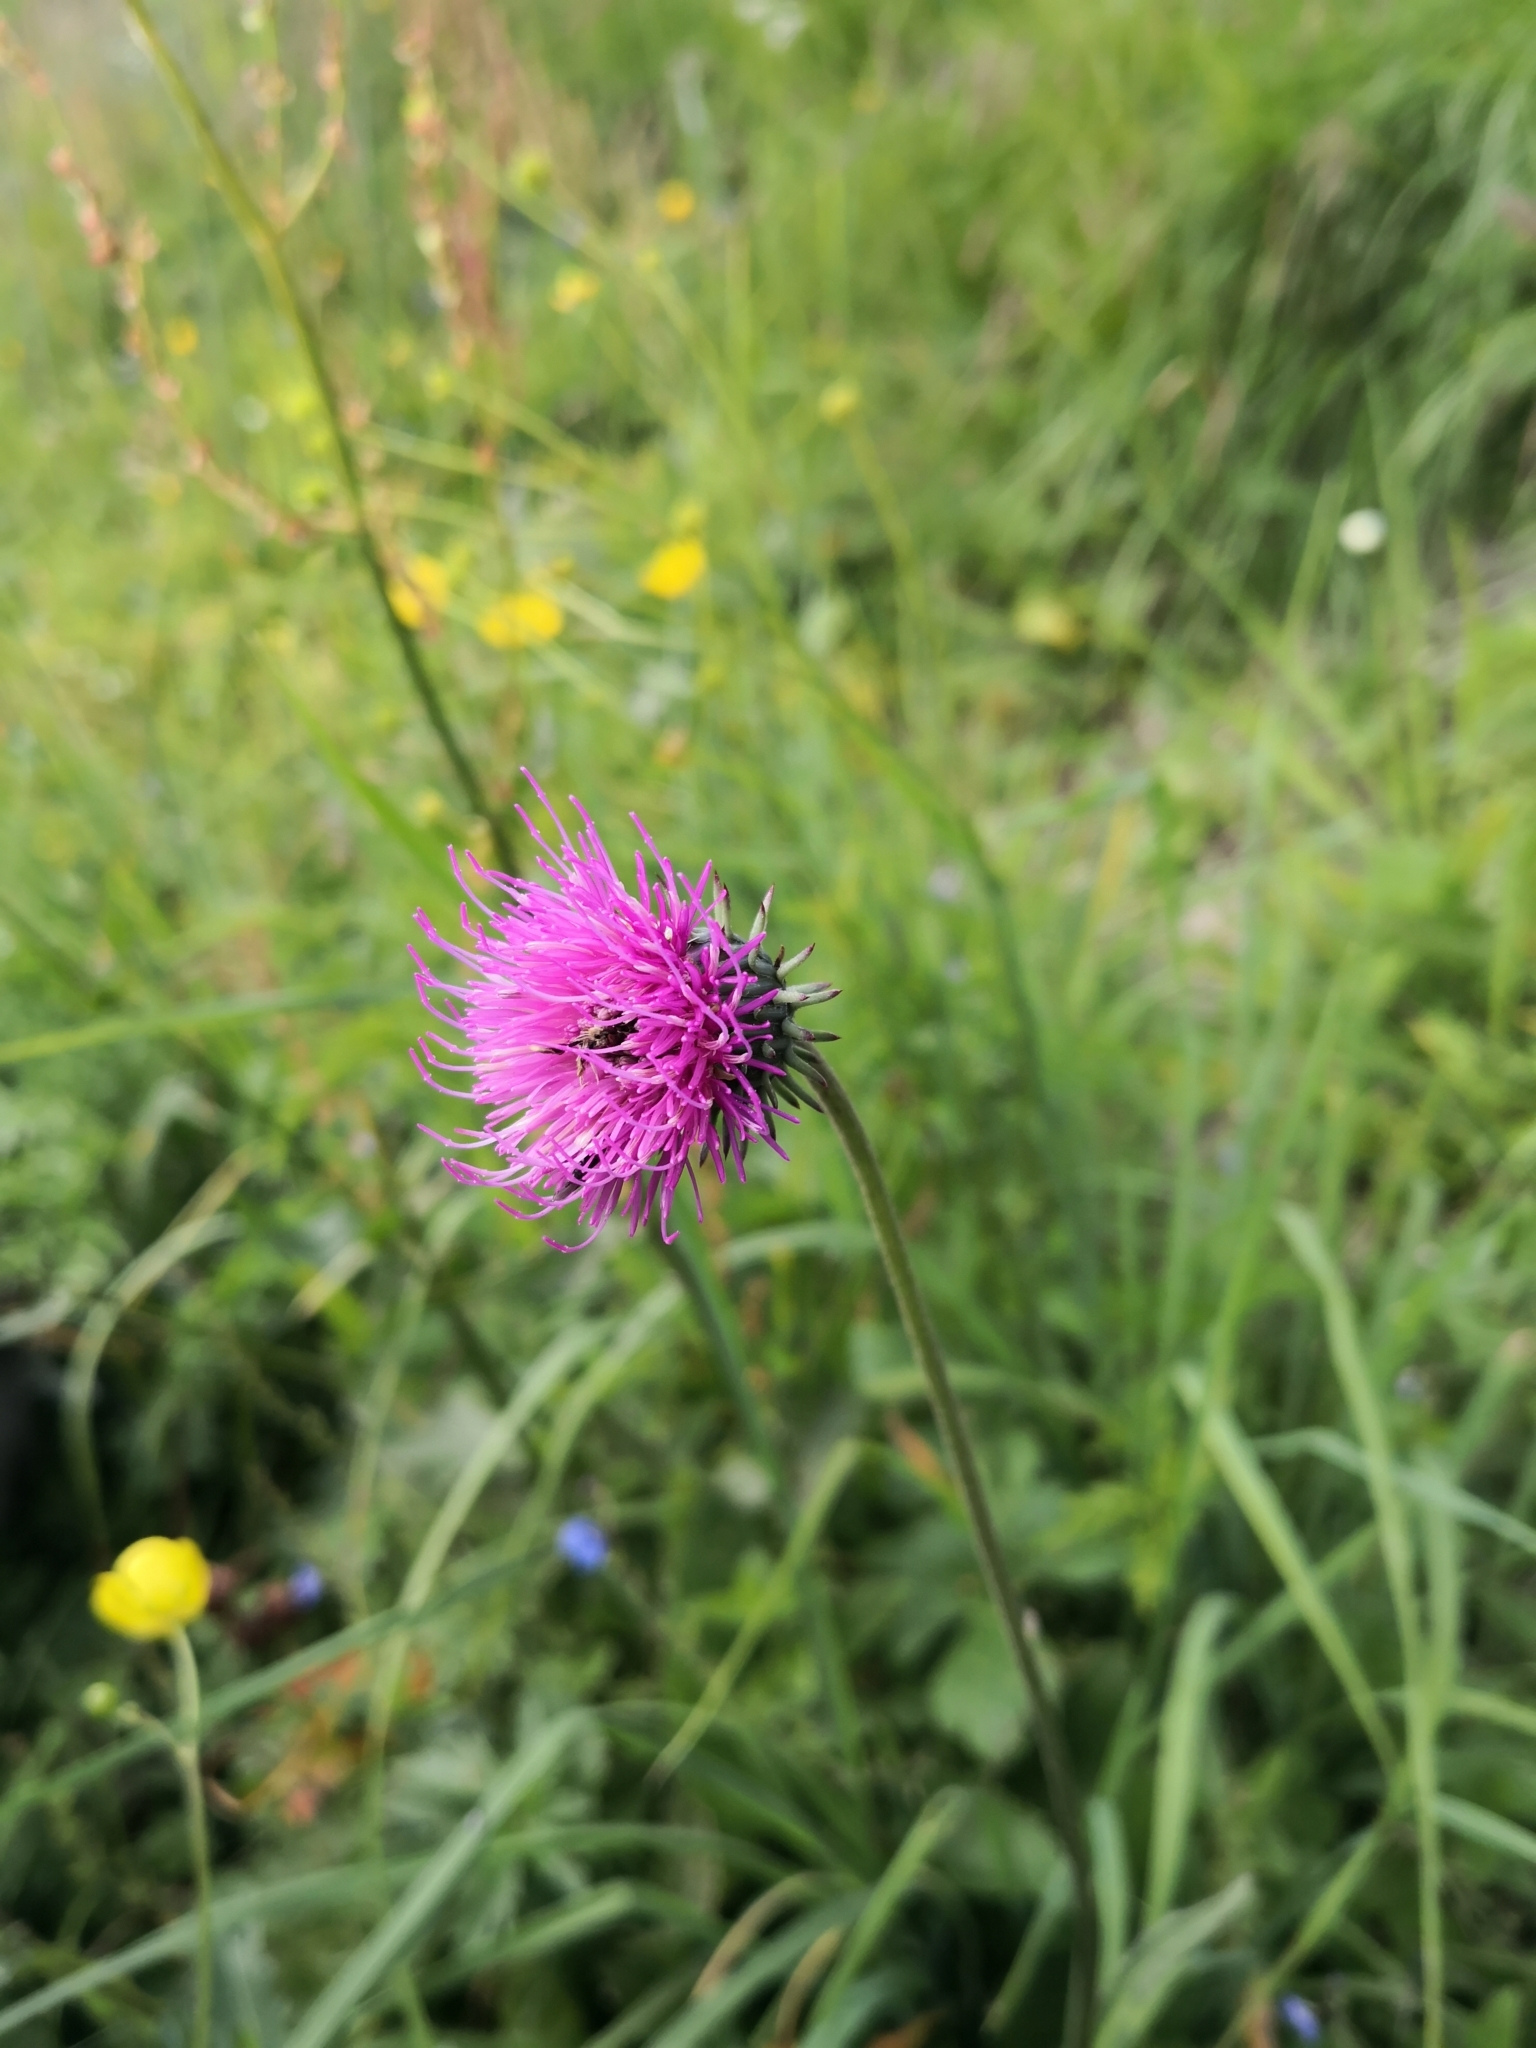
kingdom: Plantae
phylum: Tracheophyta
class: Magnoliopsida
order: Asterales
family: Asteraceae
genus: Carduus
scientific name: Carduus defloratus
